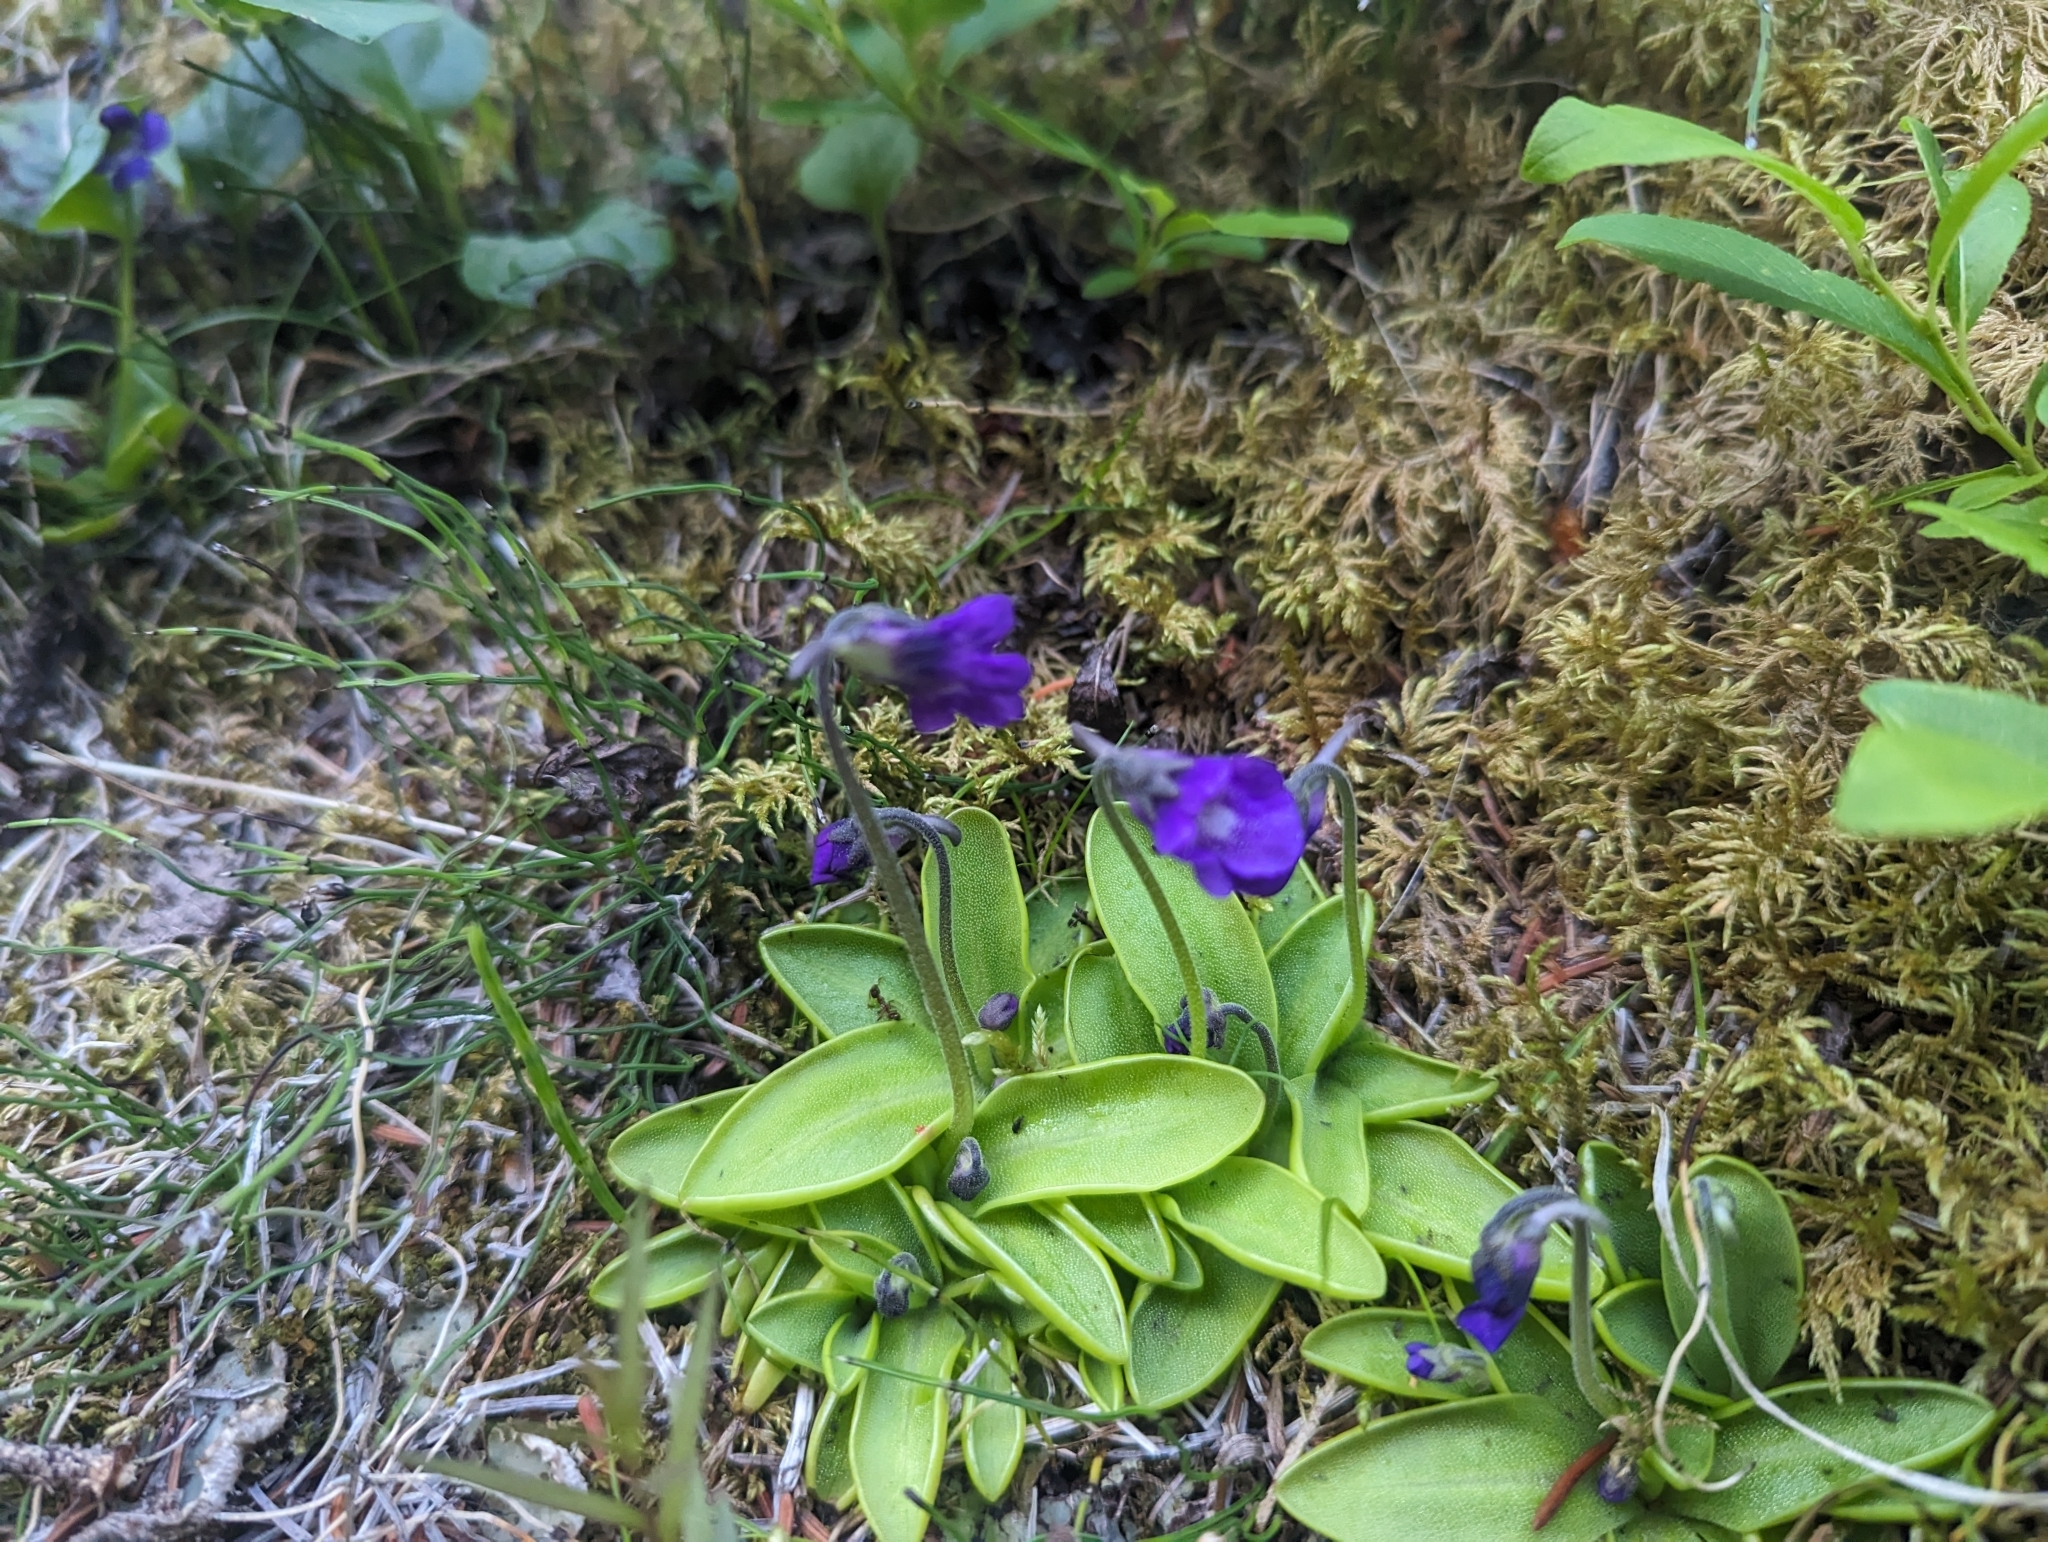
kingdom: Plantae
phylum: Tracheophyta
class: Magnoliopsida
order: Lamiales
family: Lentibulariaceae
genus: Pinguicula
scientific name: Pinguicula vulgaris
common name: Common butterwort
